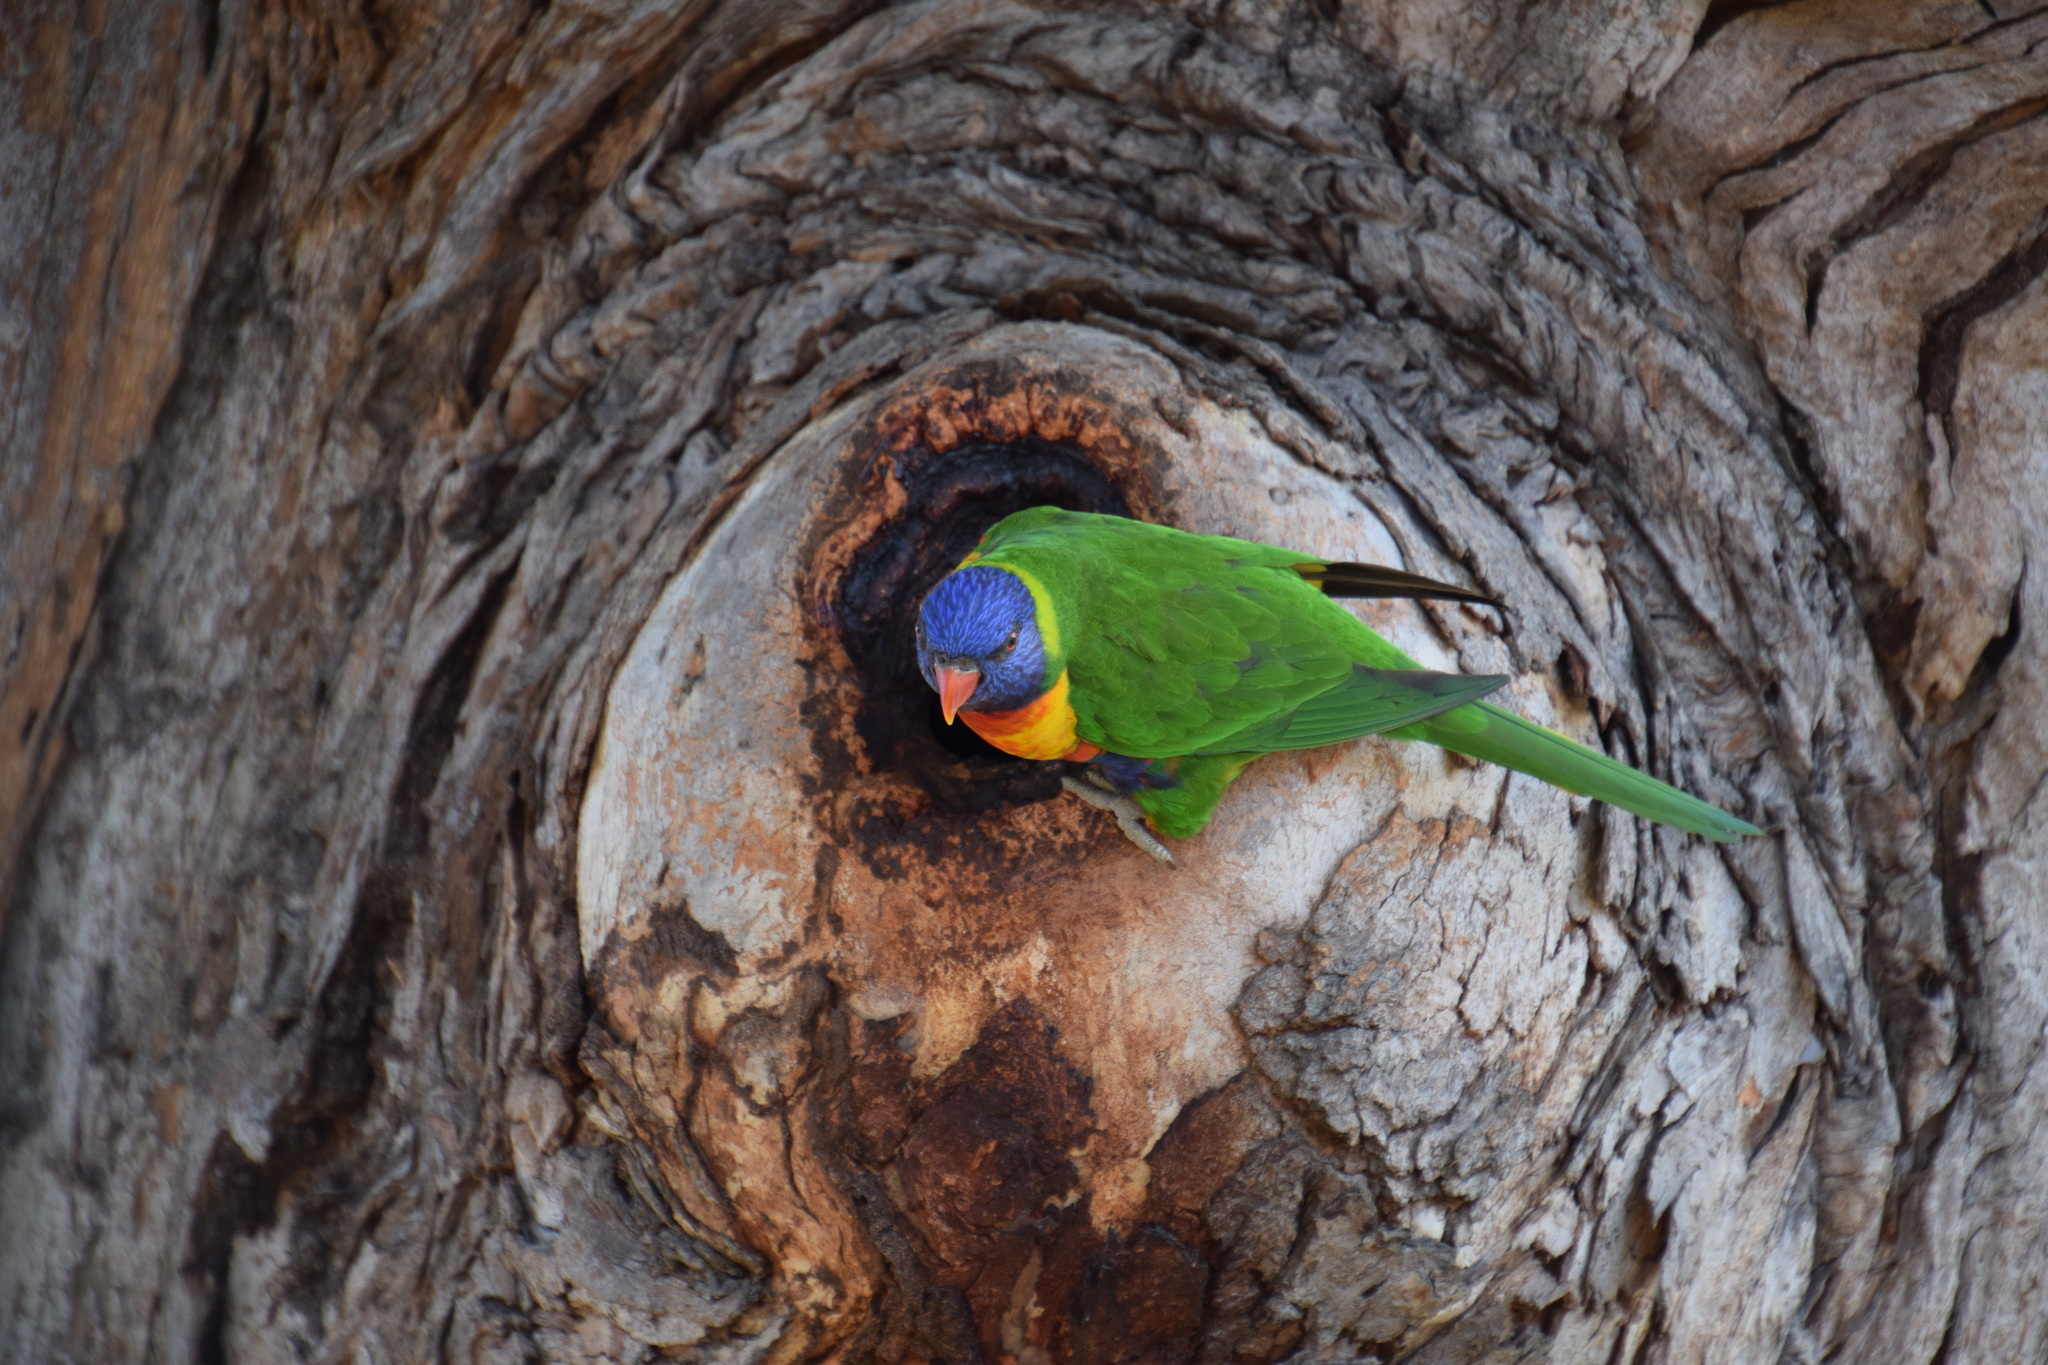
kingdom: Animalia
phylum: Chordata
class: Aves
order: Psittaciformes
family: Psittacidae
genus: Trichoglossus
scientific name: Trichoglossus haematodus
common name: Coconut lorikeet
